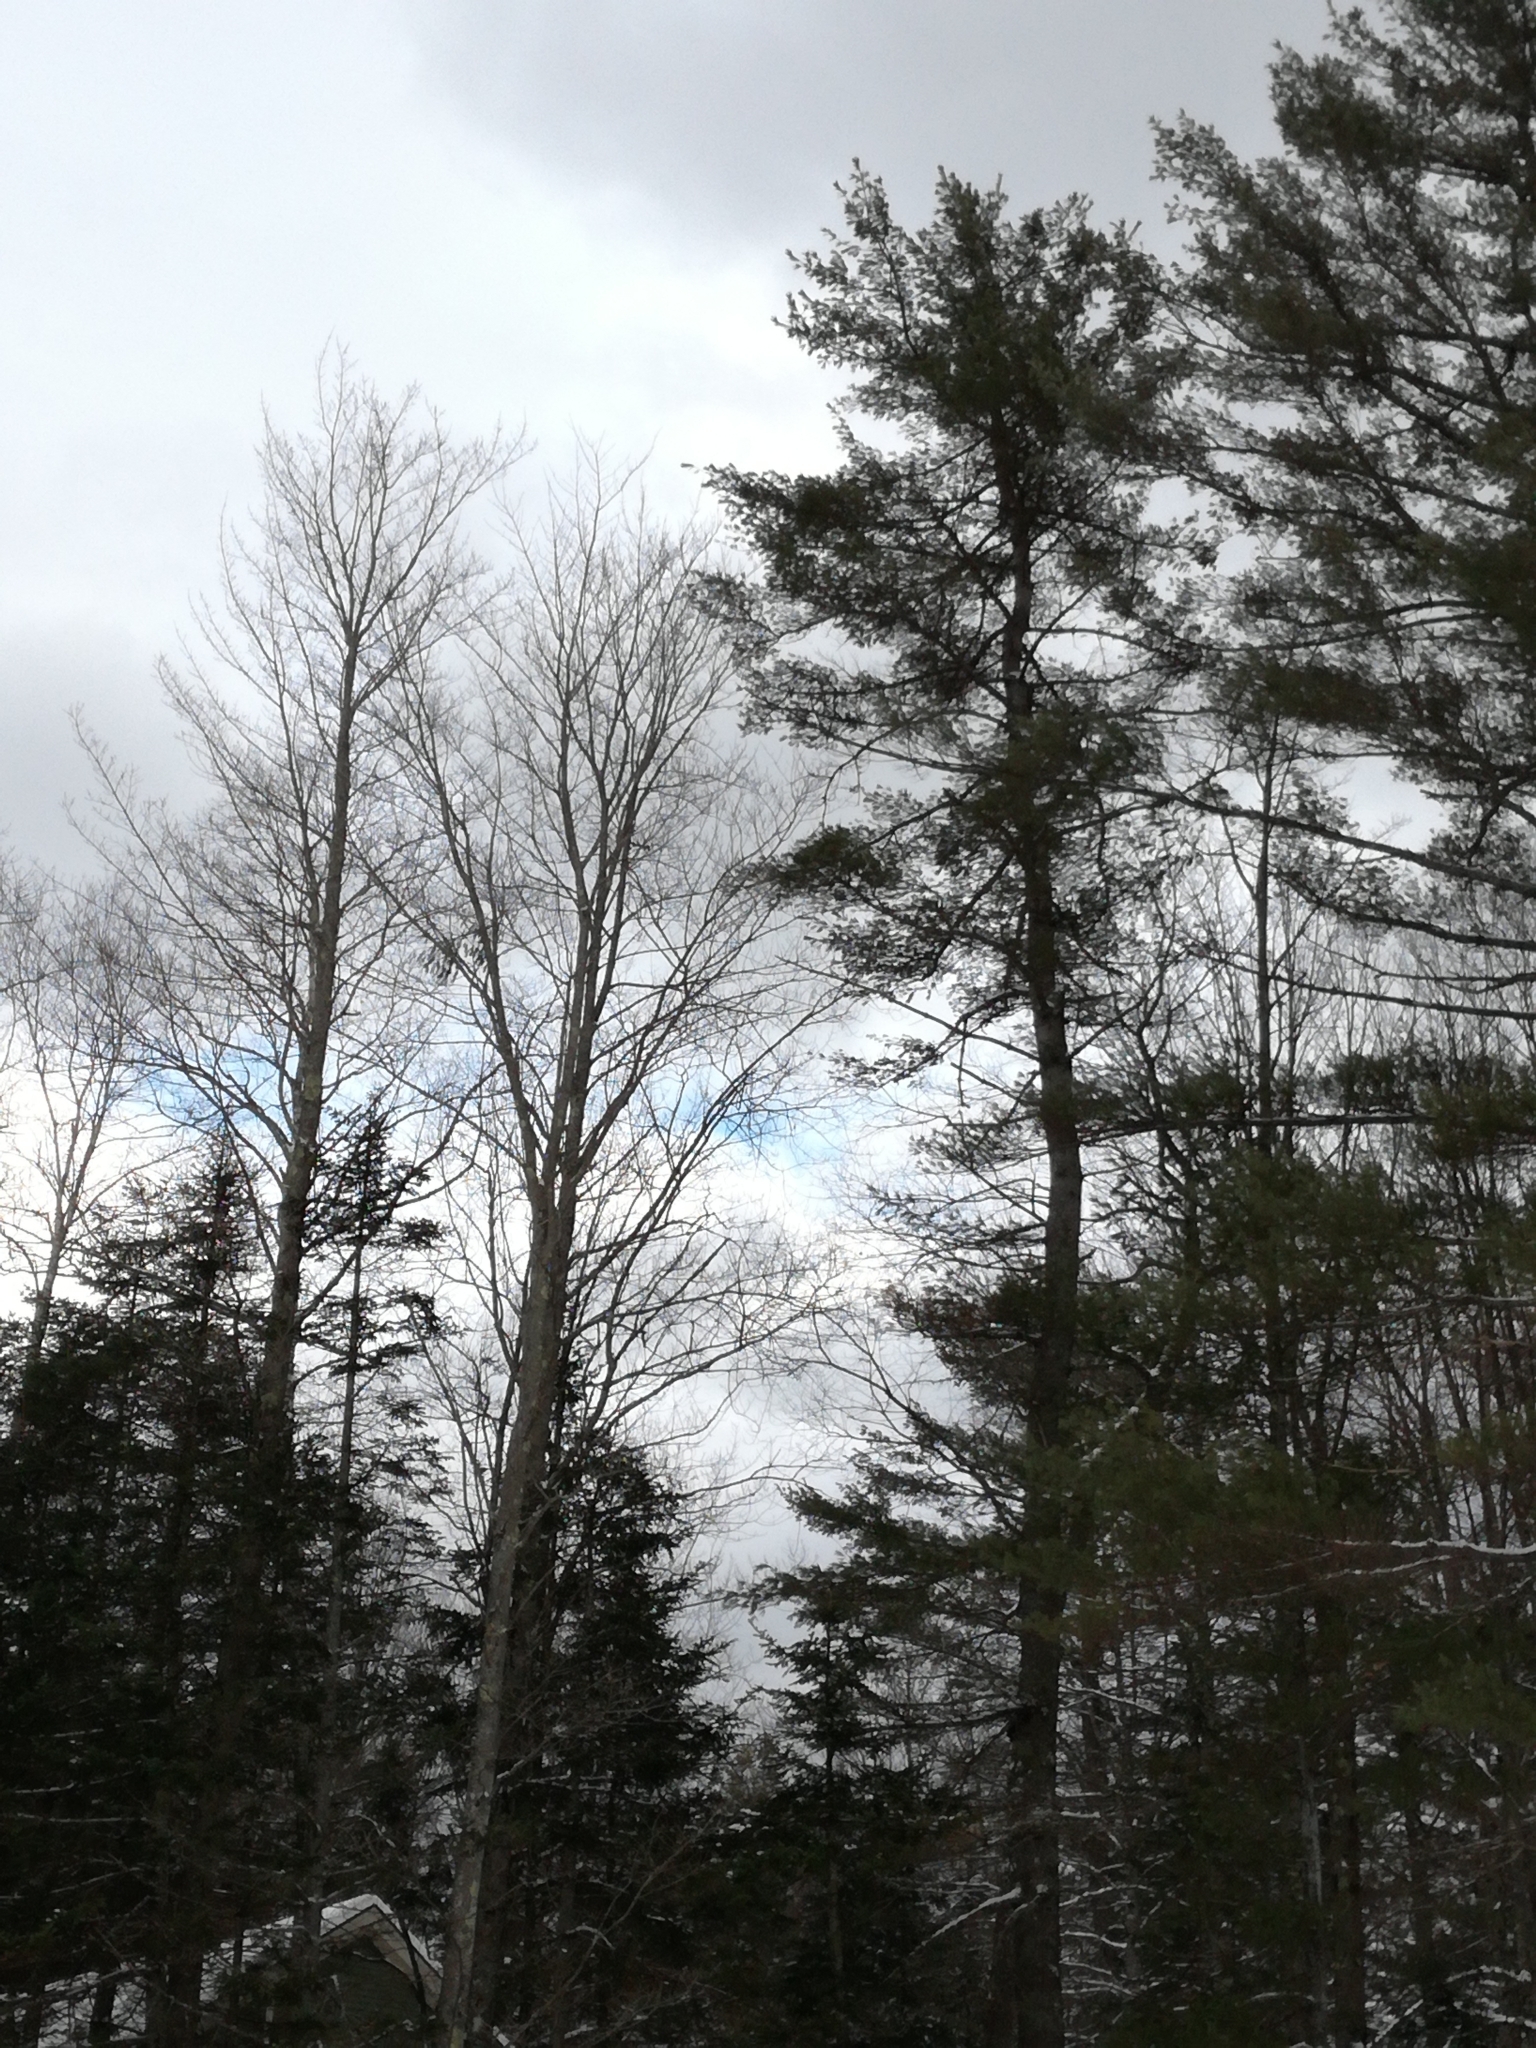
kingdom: Plantae
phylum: Tracheophyta
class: Pinopsida
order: Pinales
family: Pinaceae
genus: Pinus
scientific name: Pinus strobus
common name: Weymouth pine
